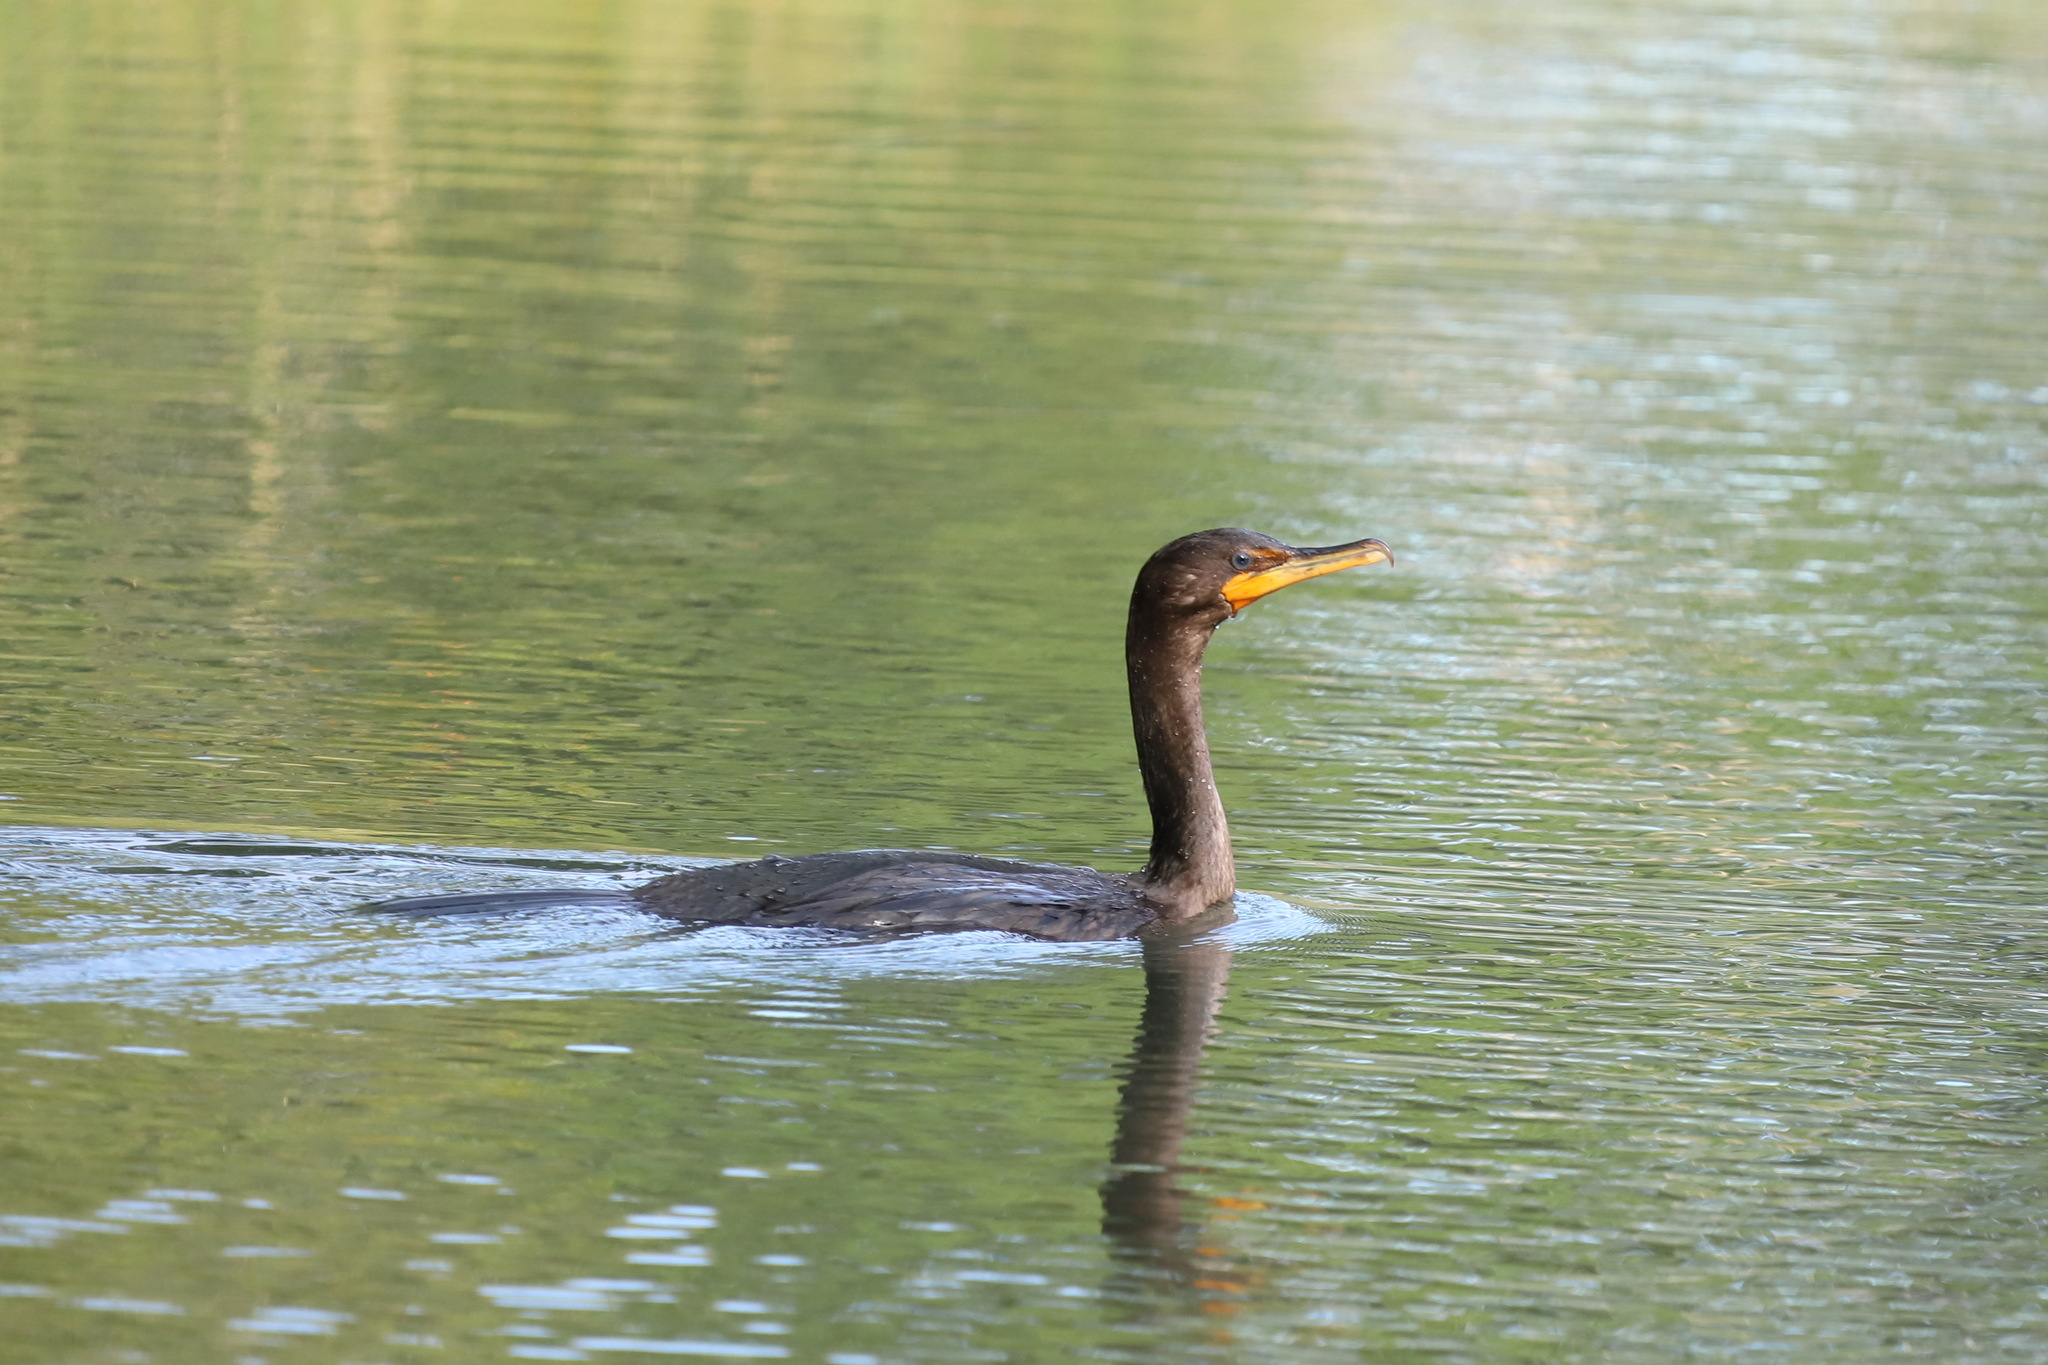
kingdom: Animalia
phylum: Chordata
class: Aves
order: Suliformes
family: Phalacrocoracidae
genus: Phalacrocorax
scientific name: Phalacrocorax auritus
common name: Double-crested cormorant
